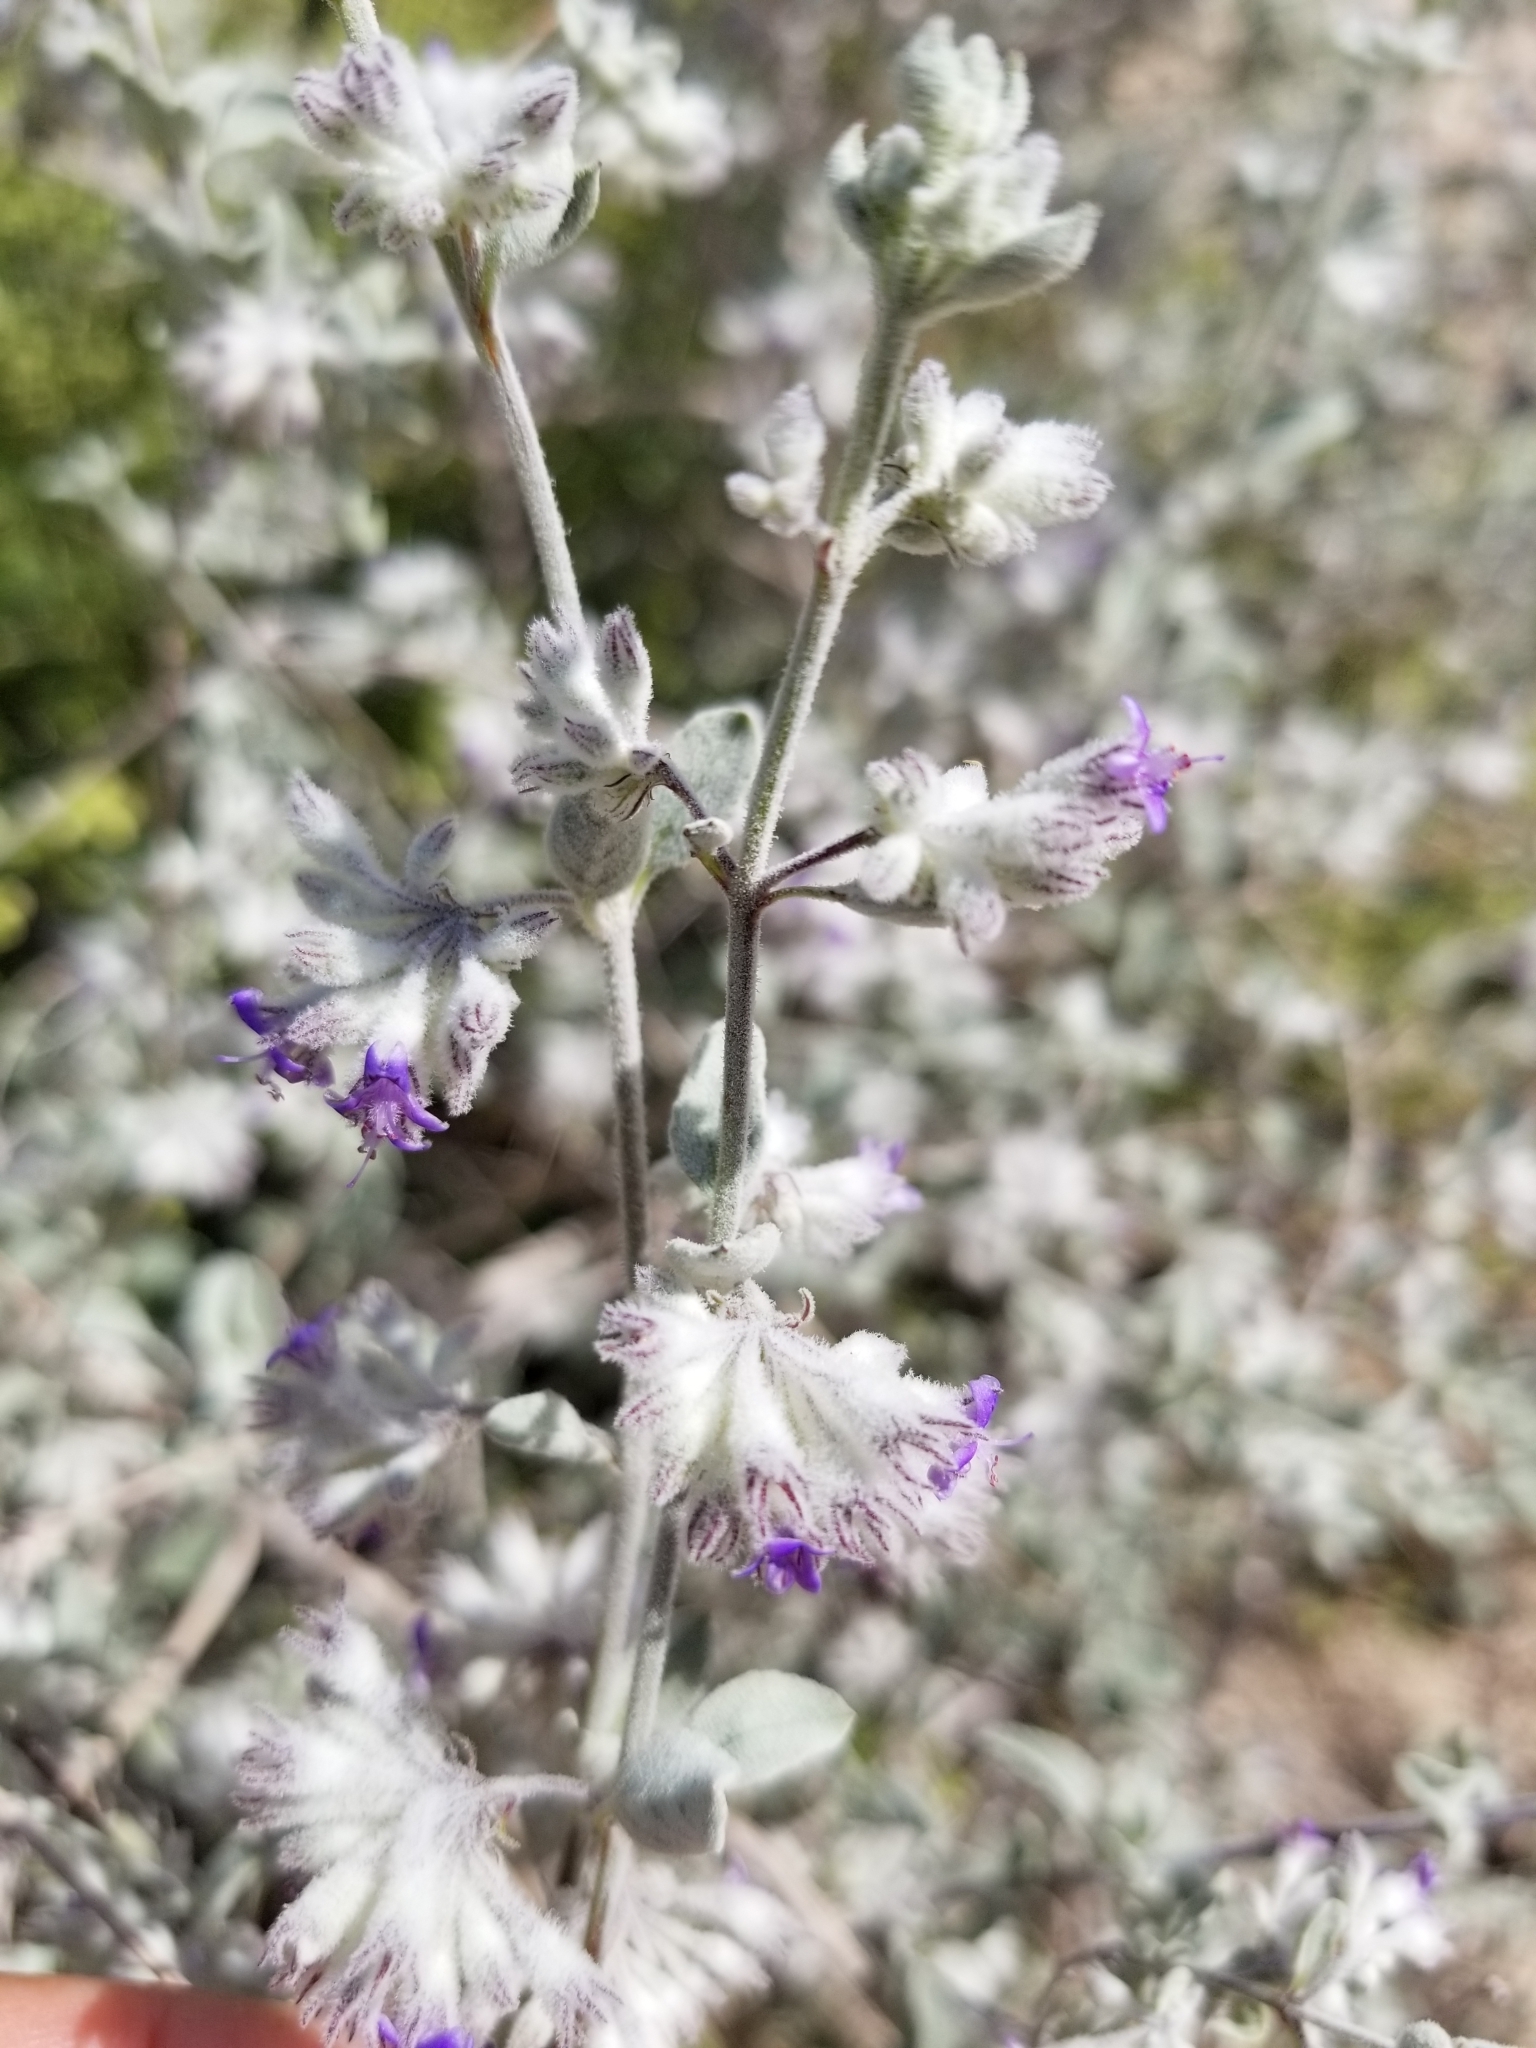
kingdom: Plantae
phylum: Tracheophyta
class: Magnoliopsida
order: Lamiales
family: Lamiaceae
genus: Condea
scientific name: Condea emoryi
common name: Chia
